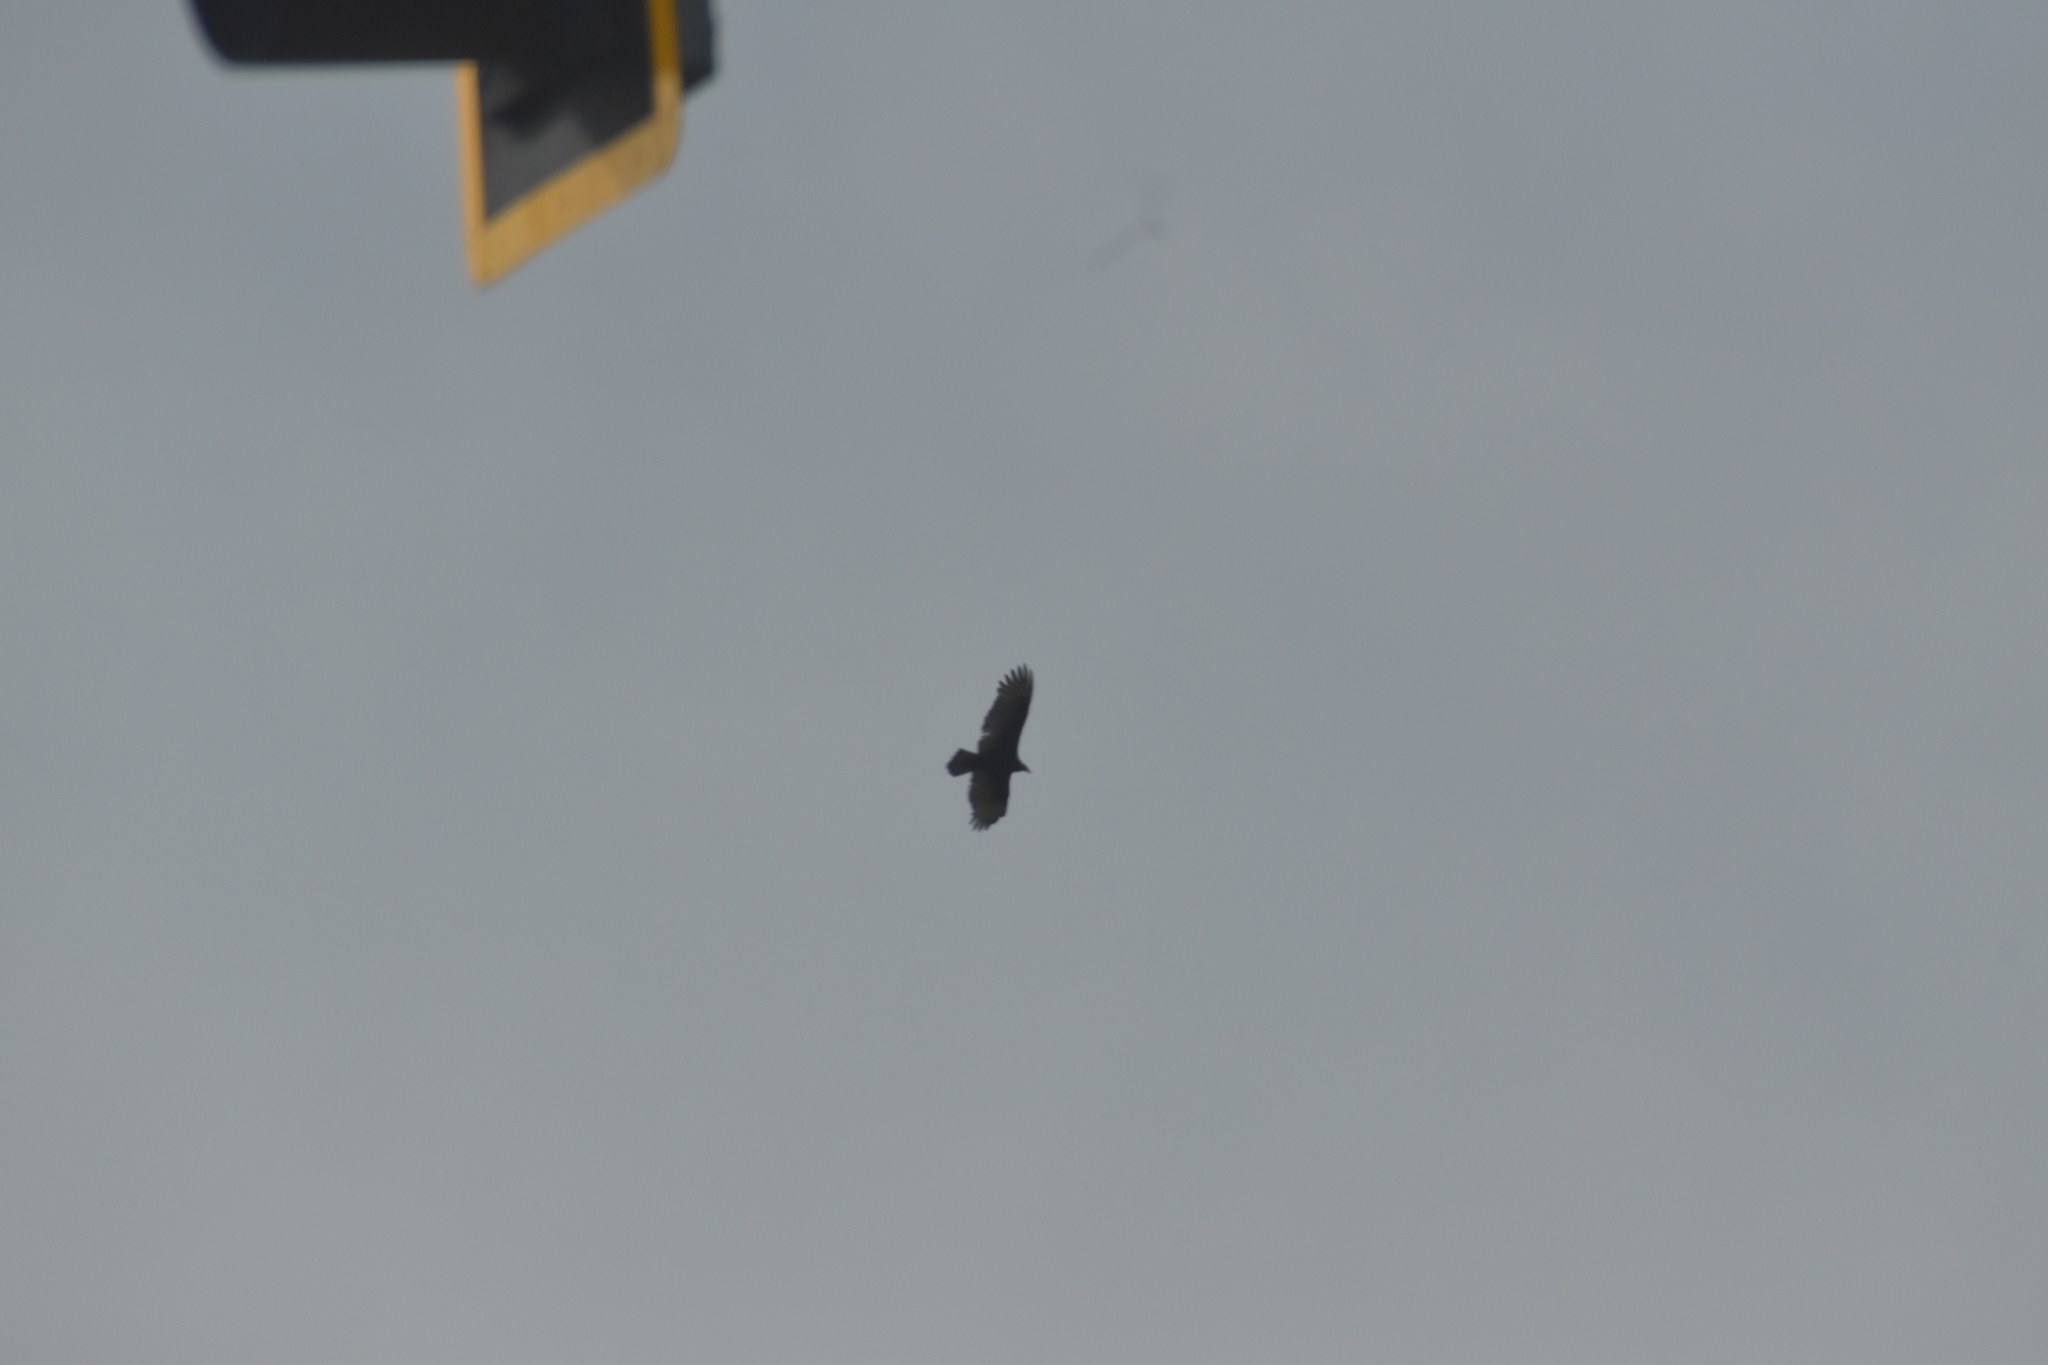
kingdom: Animalia
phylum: Chordata
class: Aves
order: Accipitriformes
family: Cathartidae
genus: Cathartes
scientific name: Cathartes aura
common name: Turkey vulture
